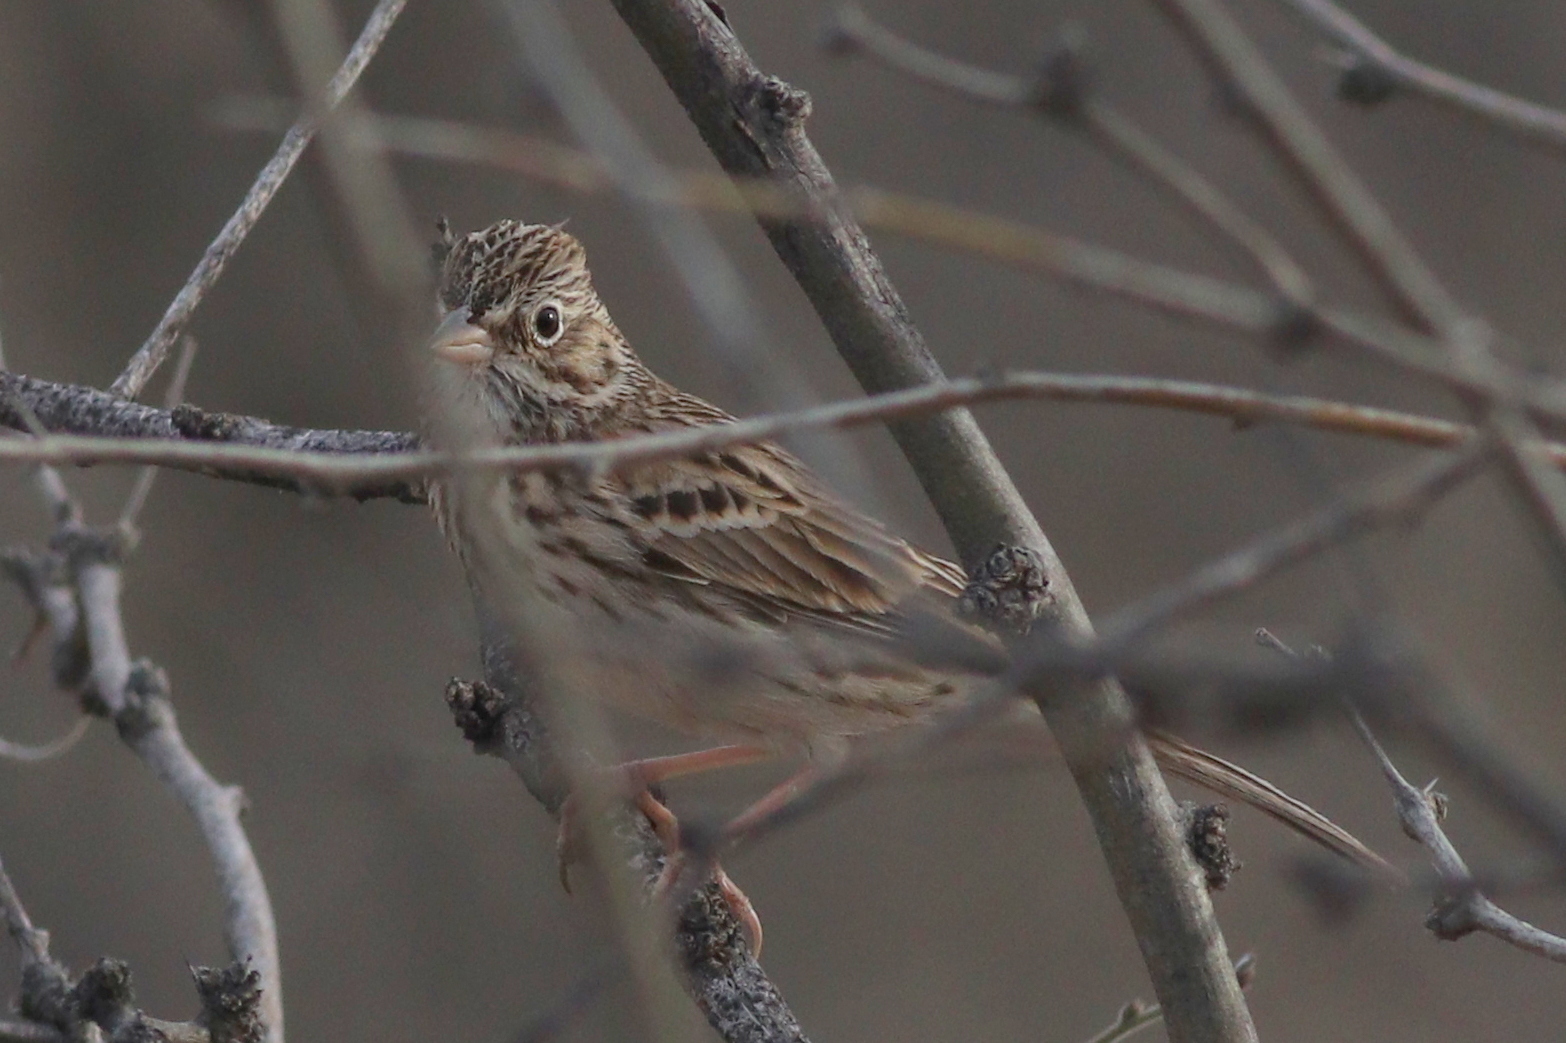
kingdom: Animalia
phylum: Chordata
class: Aves
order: Passeriformes
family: Passerellidae
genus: Pooecetes
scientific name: Pooecetes gramineus
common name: Vesper sparrow
